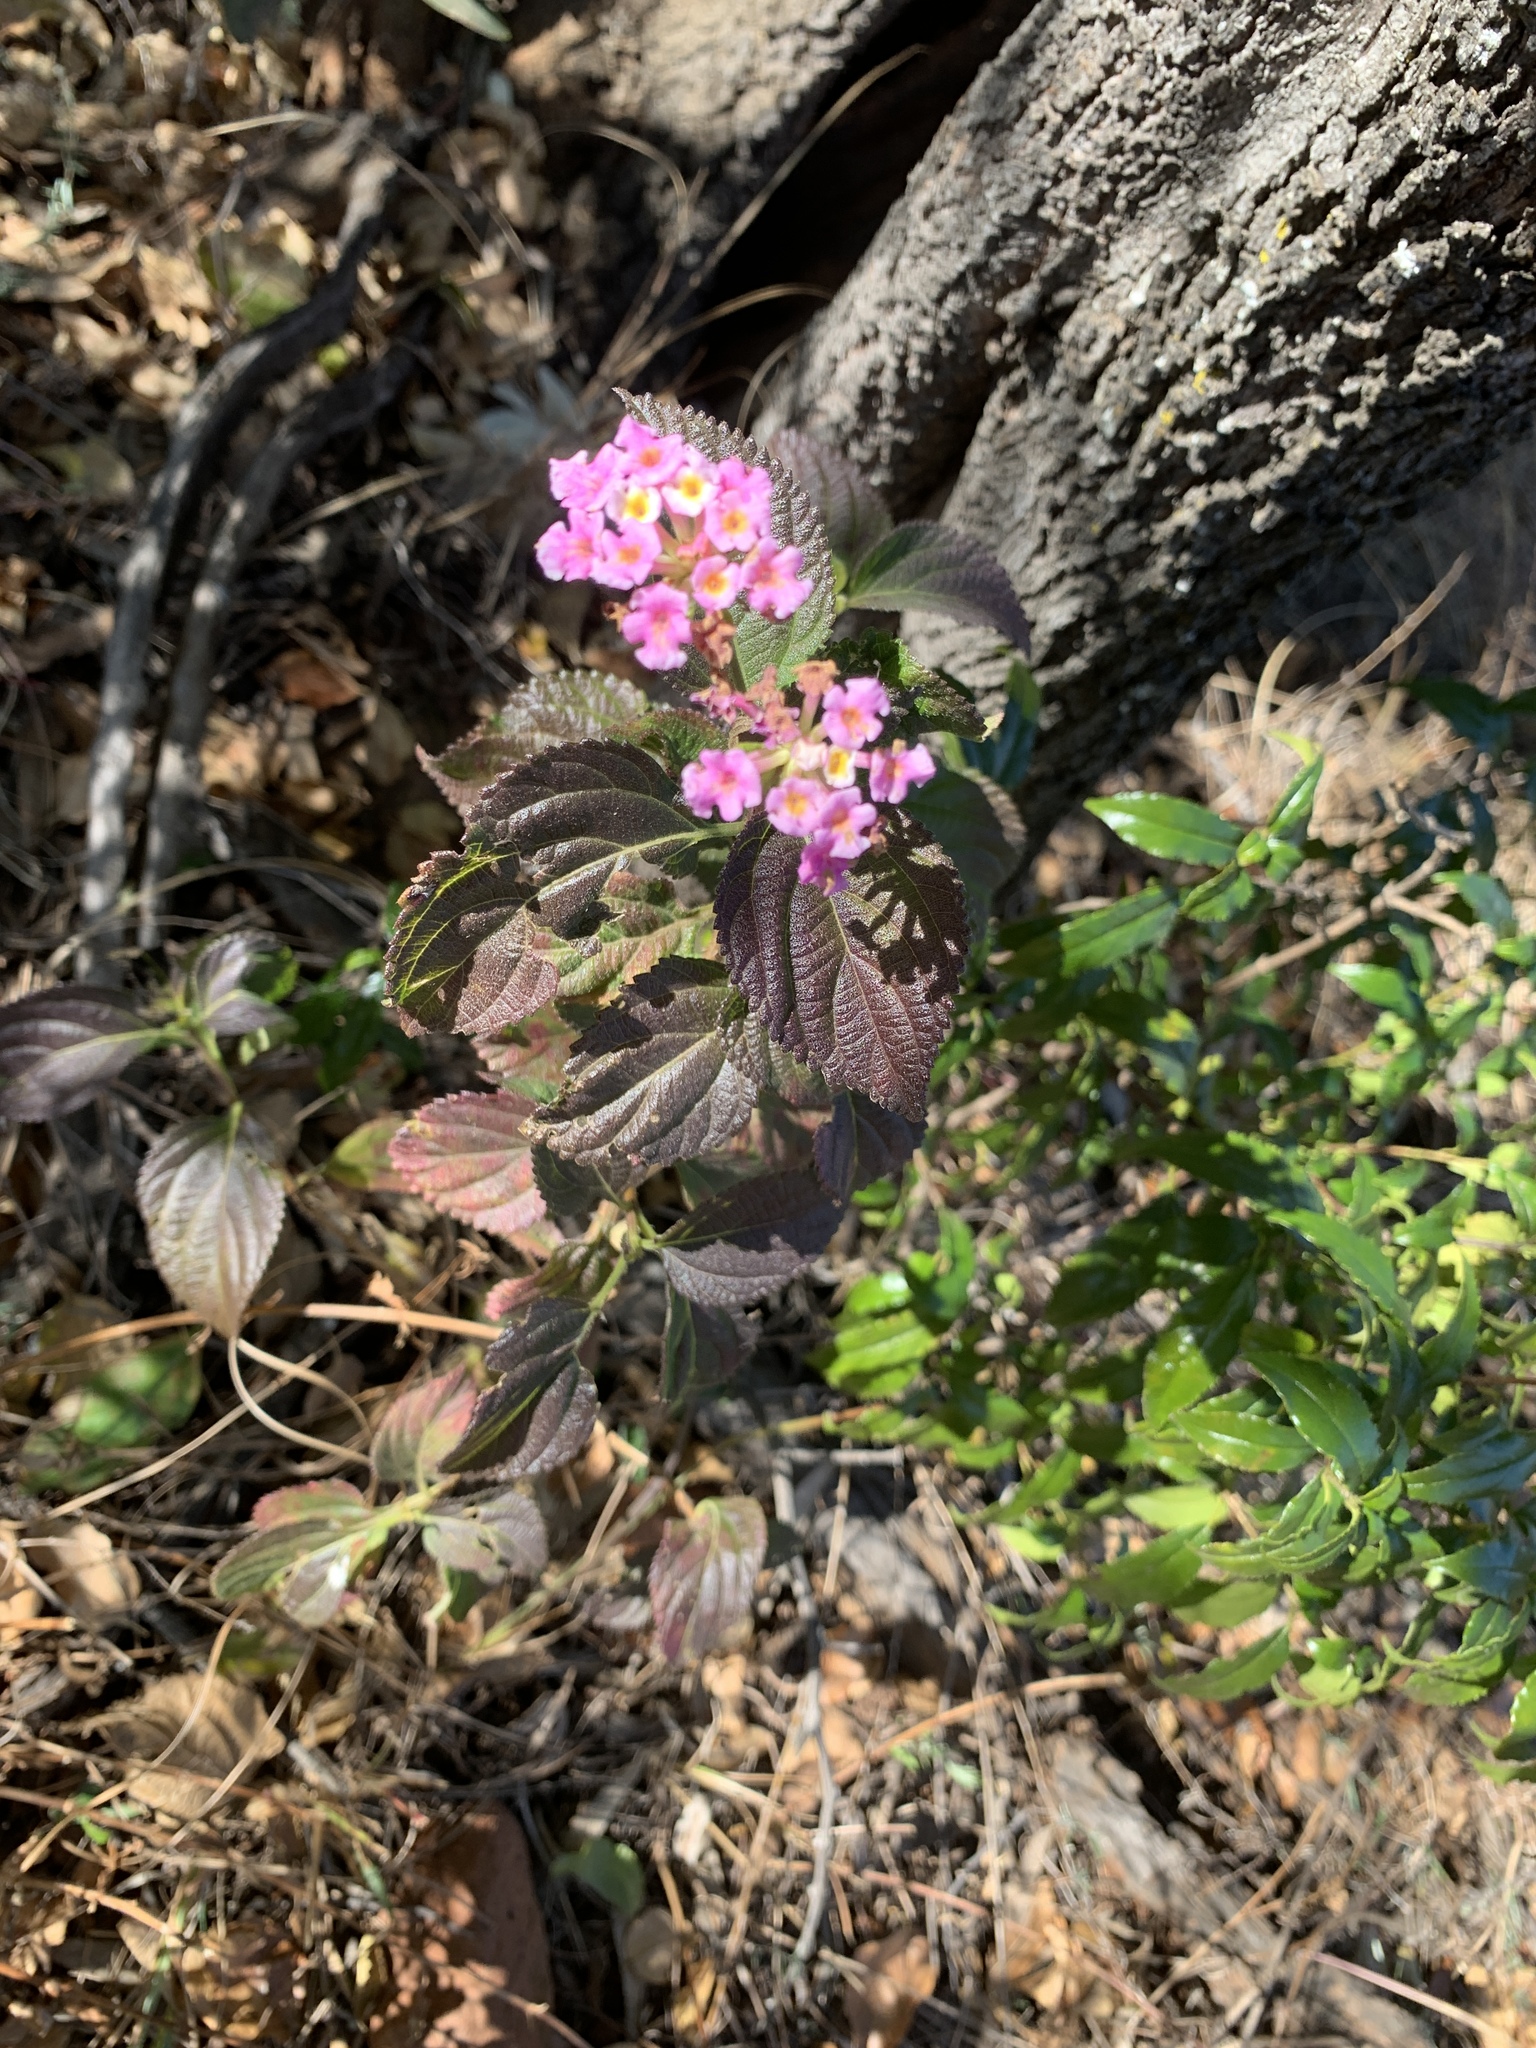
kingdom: Plantae
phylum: Tracheophyta
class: Magnoliopsida
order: Lamiales
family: Verbenaceae
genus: Lantana
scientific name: Lantana camara
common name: Lantana
